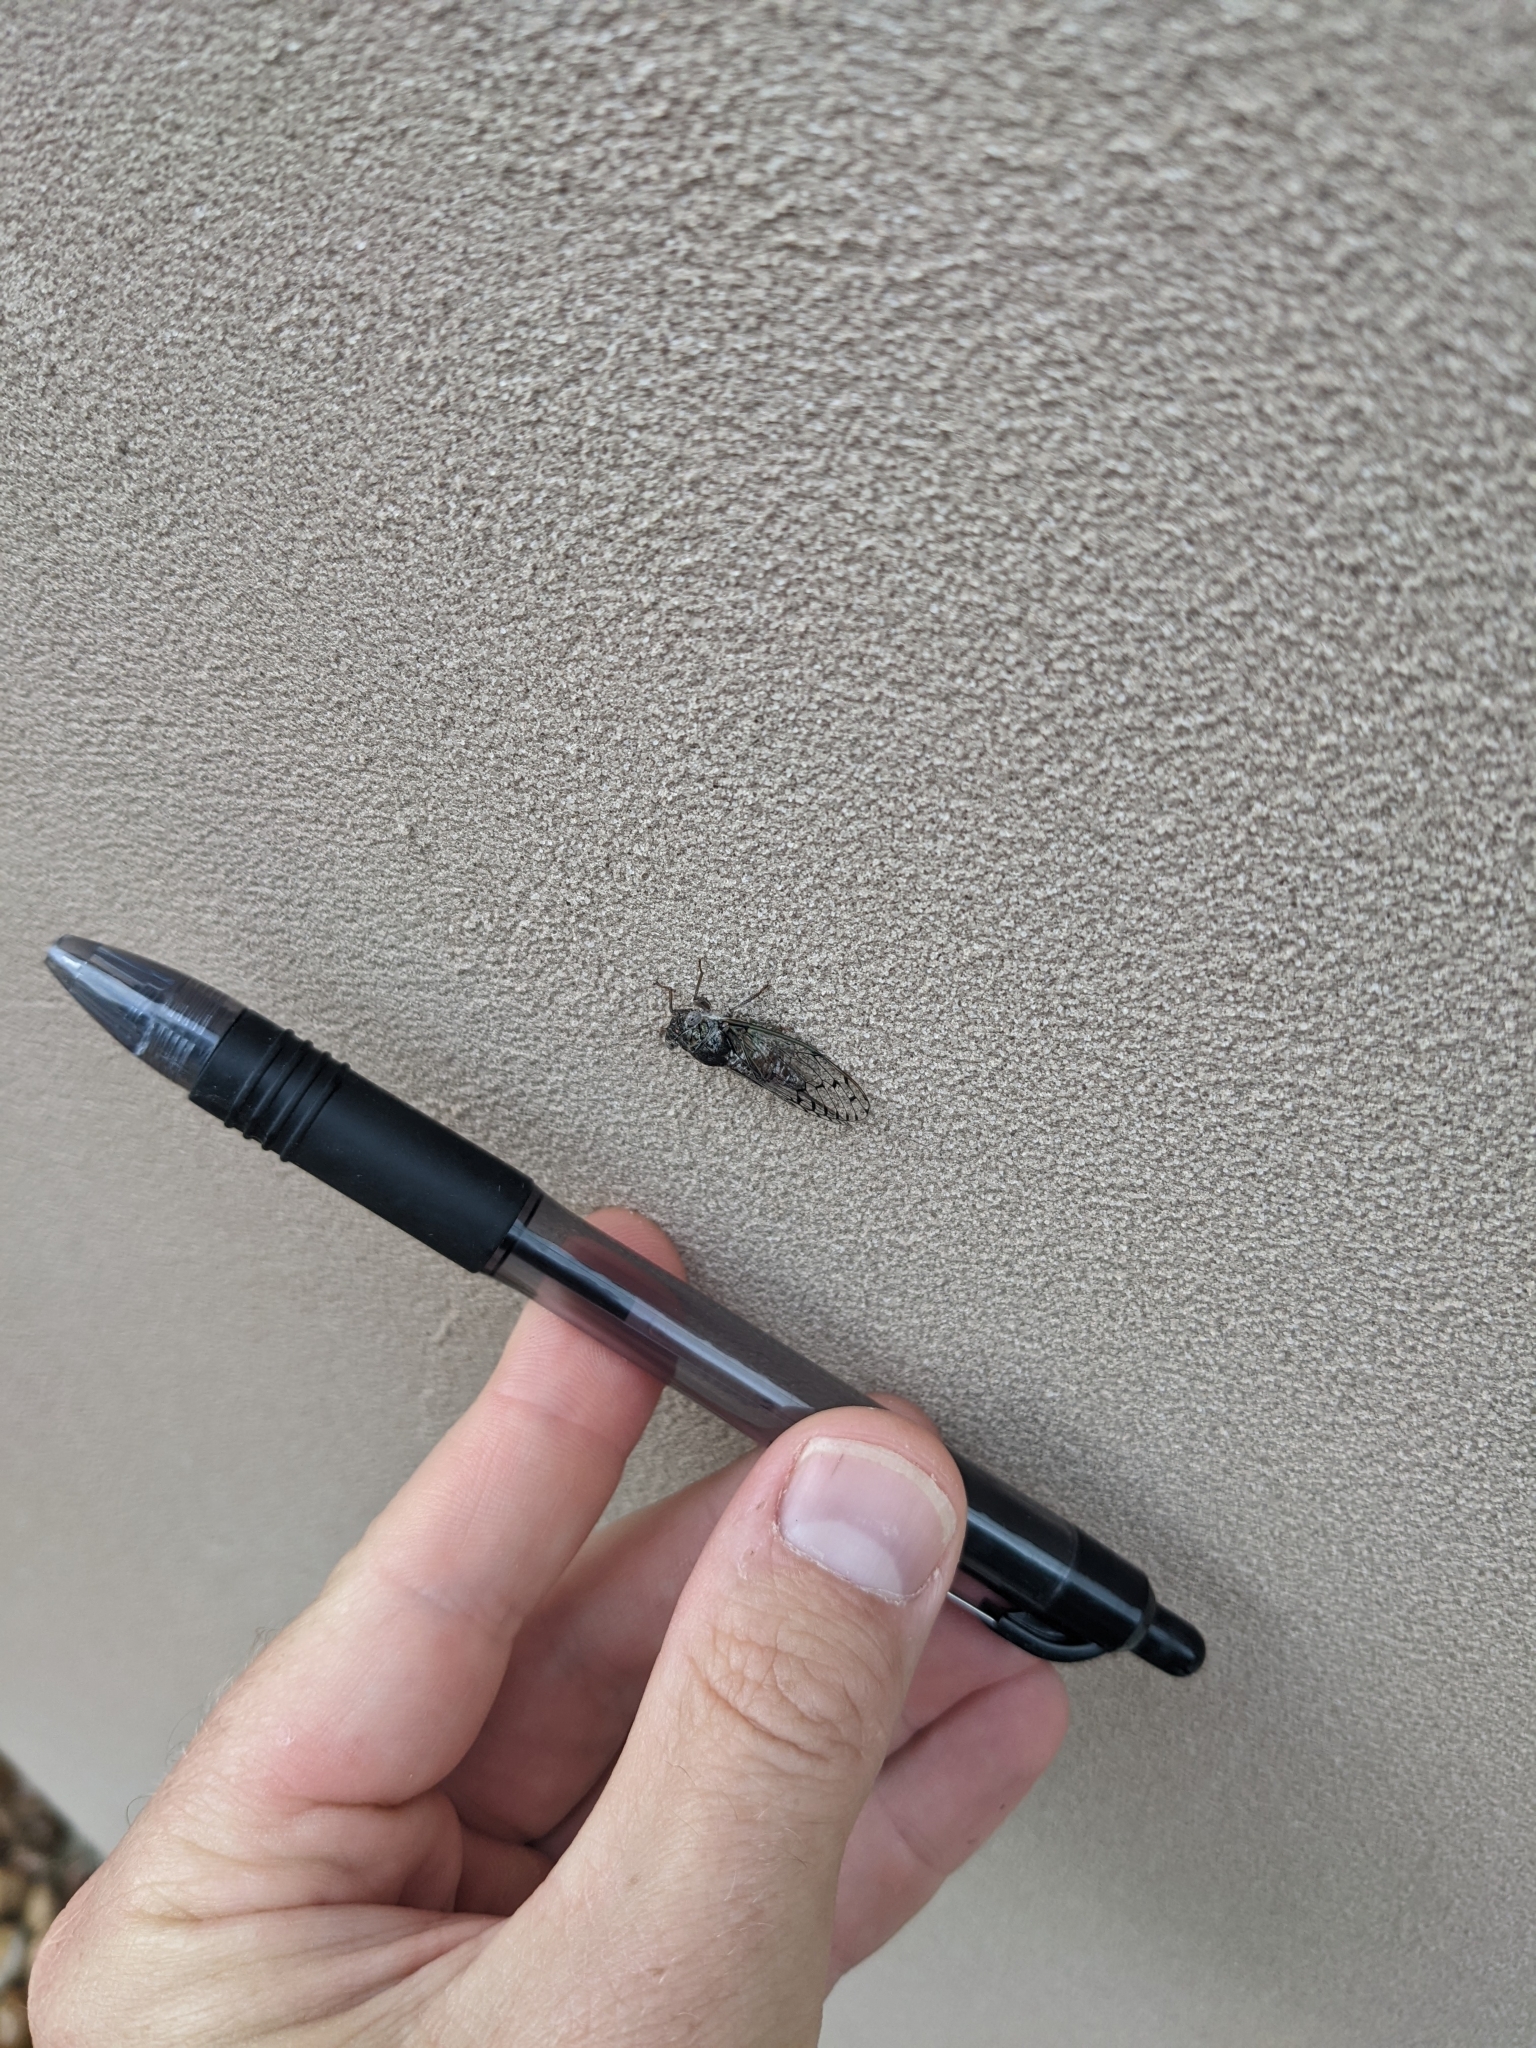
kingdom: Animalia
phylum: Arthropoda
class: Insecta
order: Hemiptera
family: Cicadidae
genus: Pacarina
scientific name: Pacarina puella
